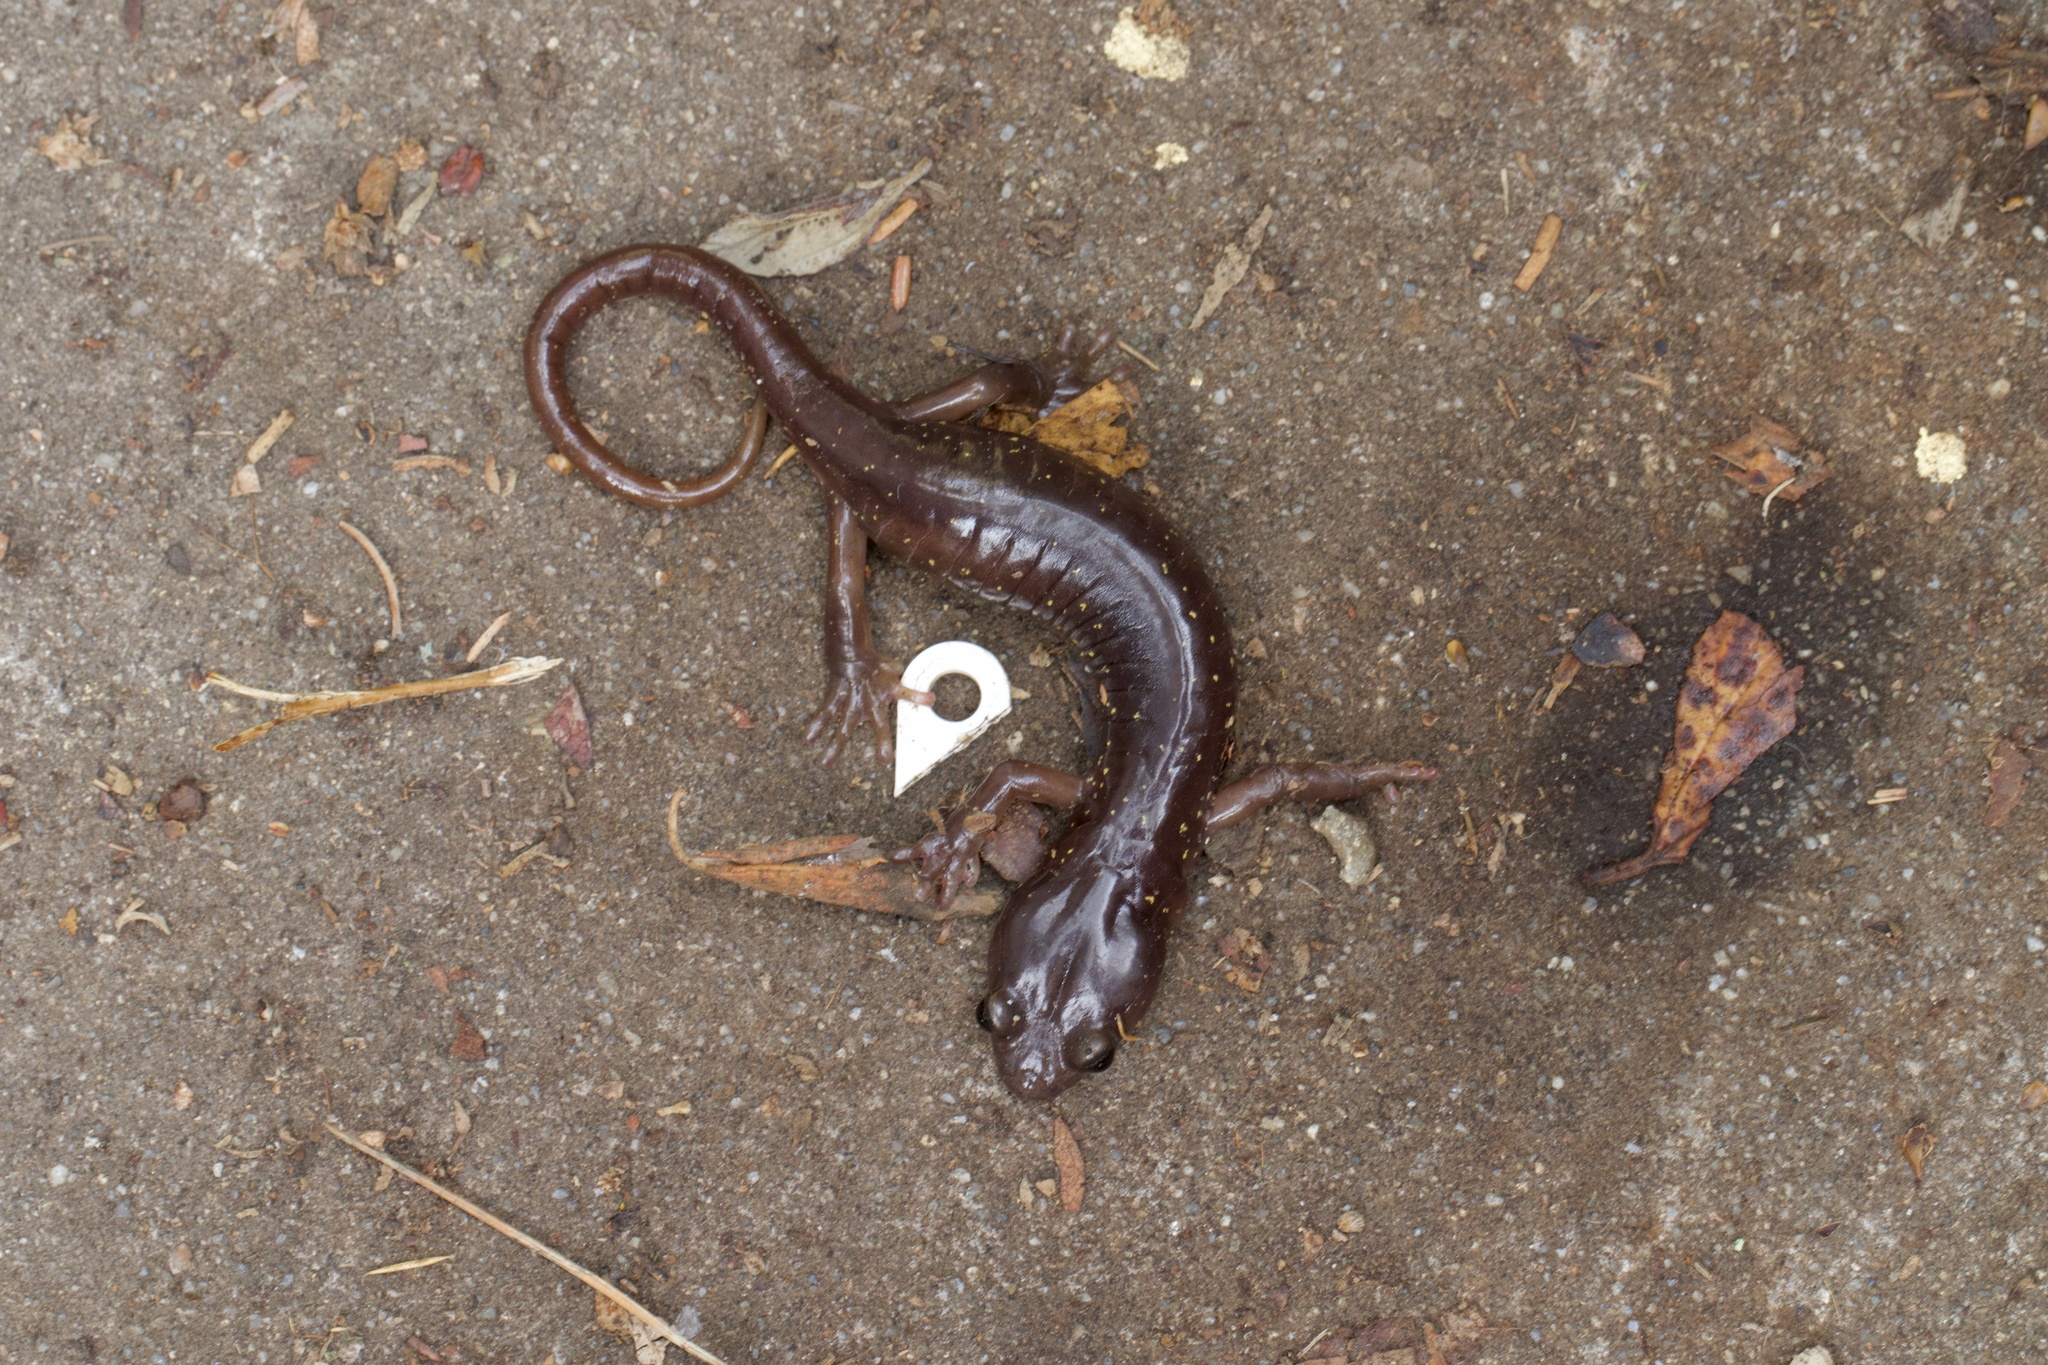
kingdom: Animalia
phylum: Chordata
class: Amphibia
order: Caudata
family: Plethodontidae
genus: Aneides
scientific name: Aneides lugubris
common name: Arboreal salamander
